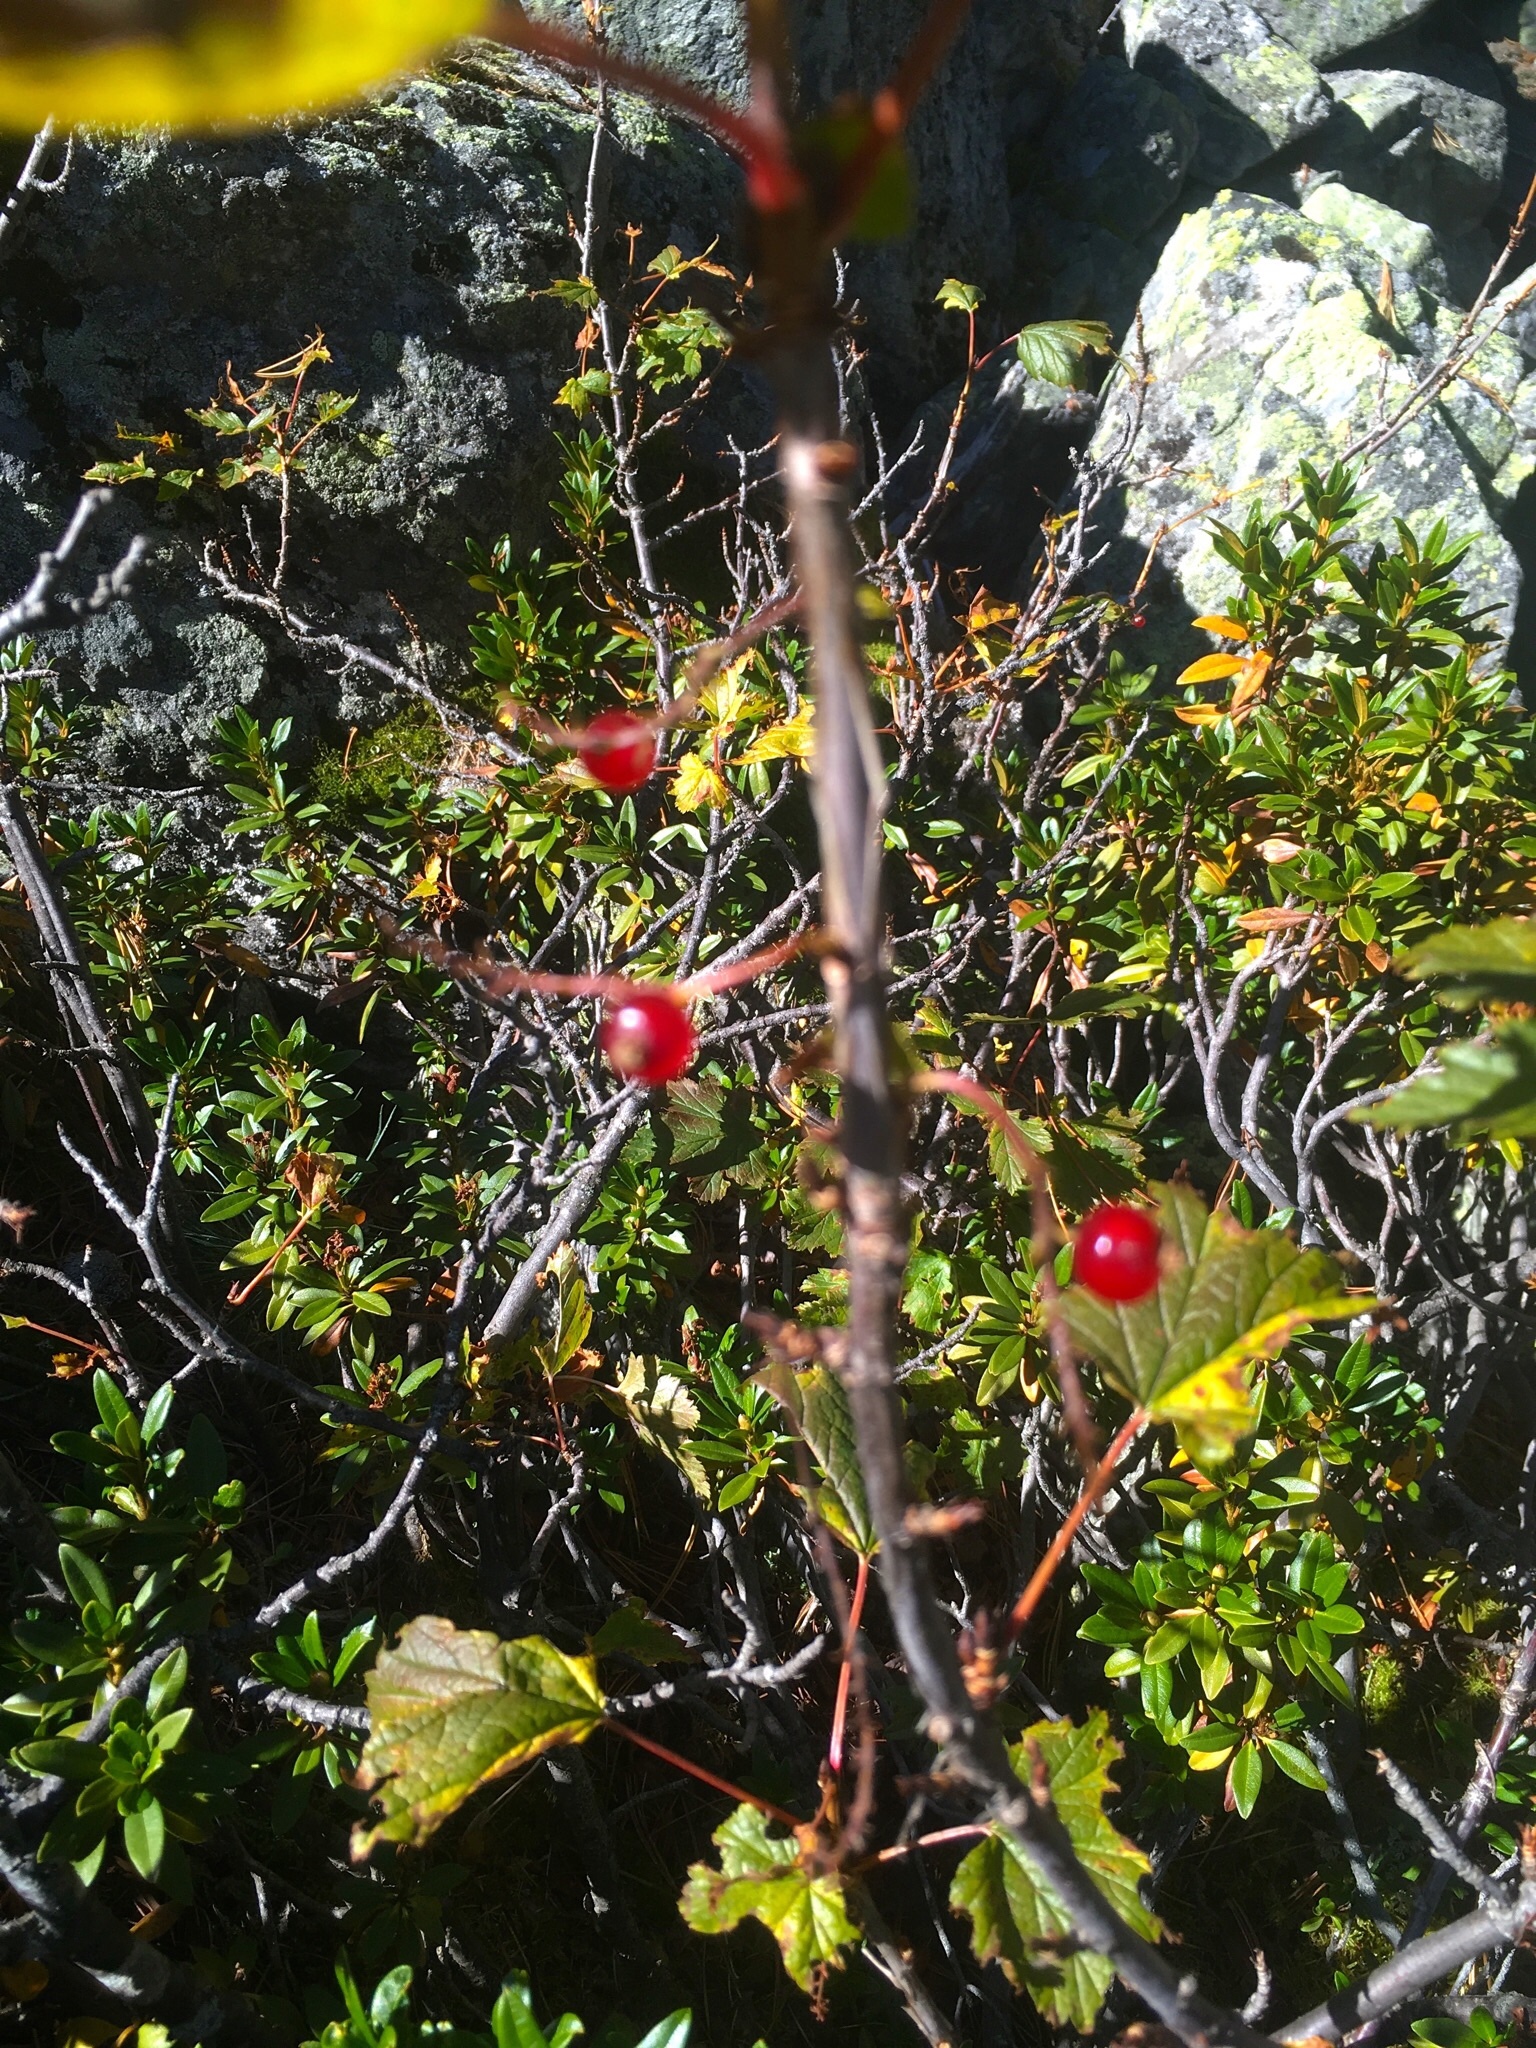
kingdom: Plantae
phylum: Tracheophyta
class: Magnoliopsida
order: Saxifragales
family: Grossulariaceae
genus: Ribes
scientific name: Ribes petraeum
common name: Rock currant
